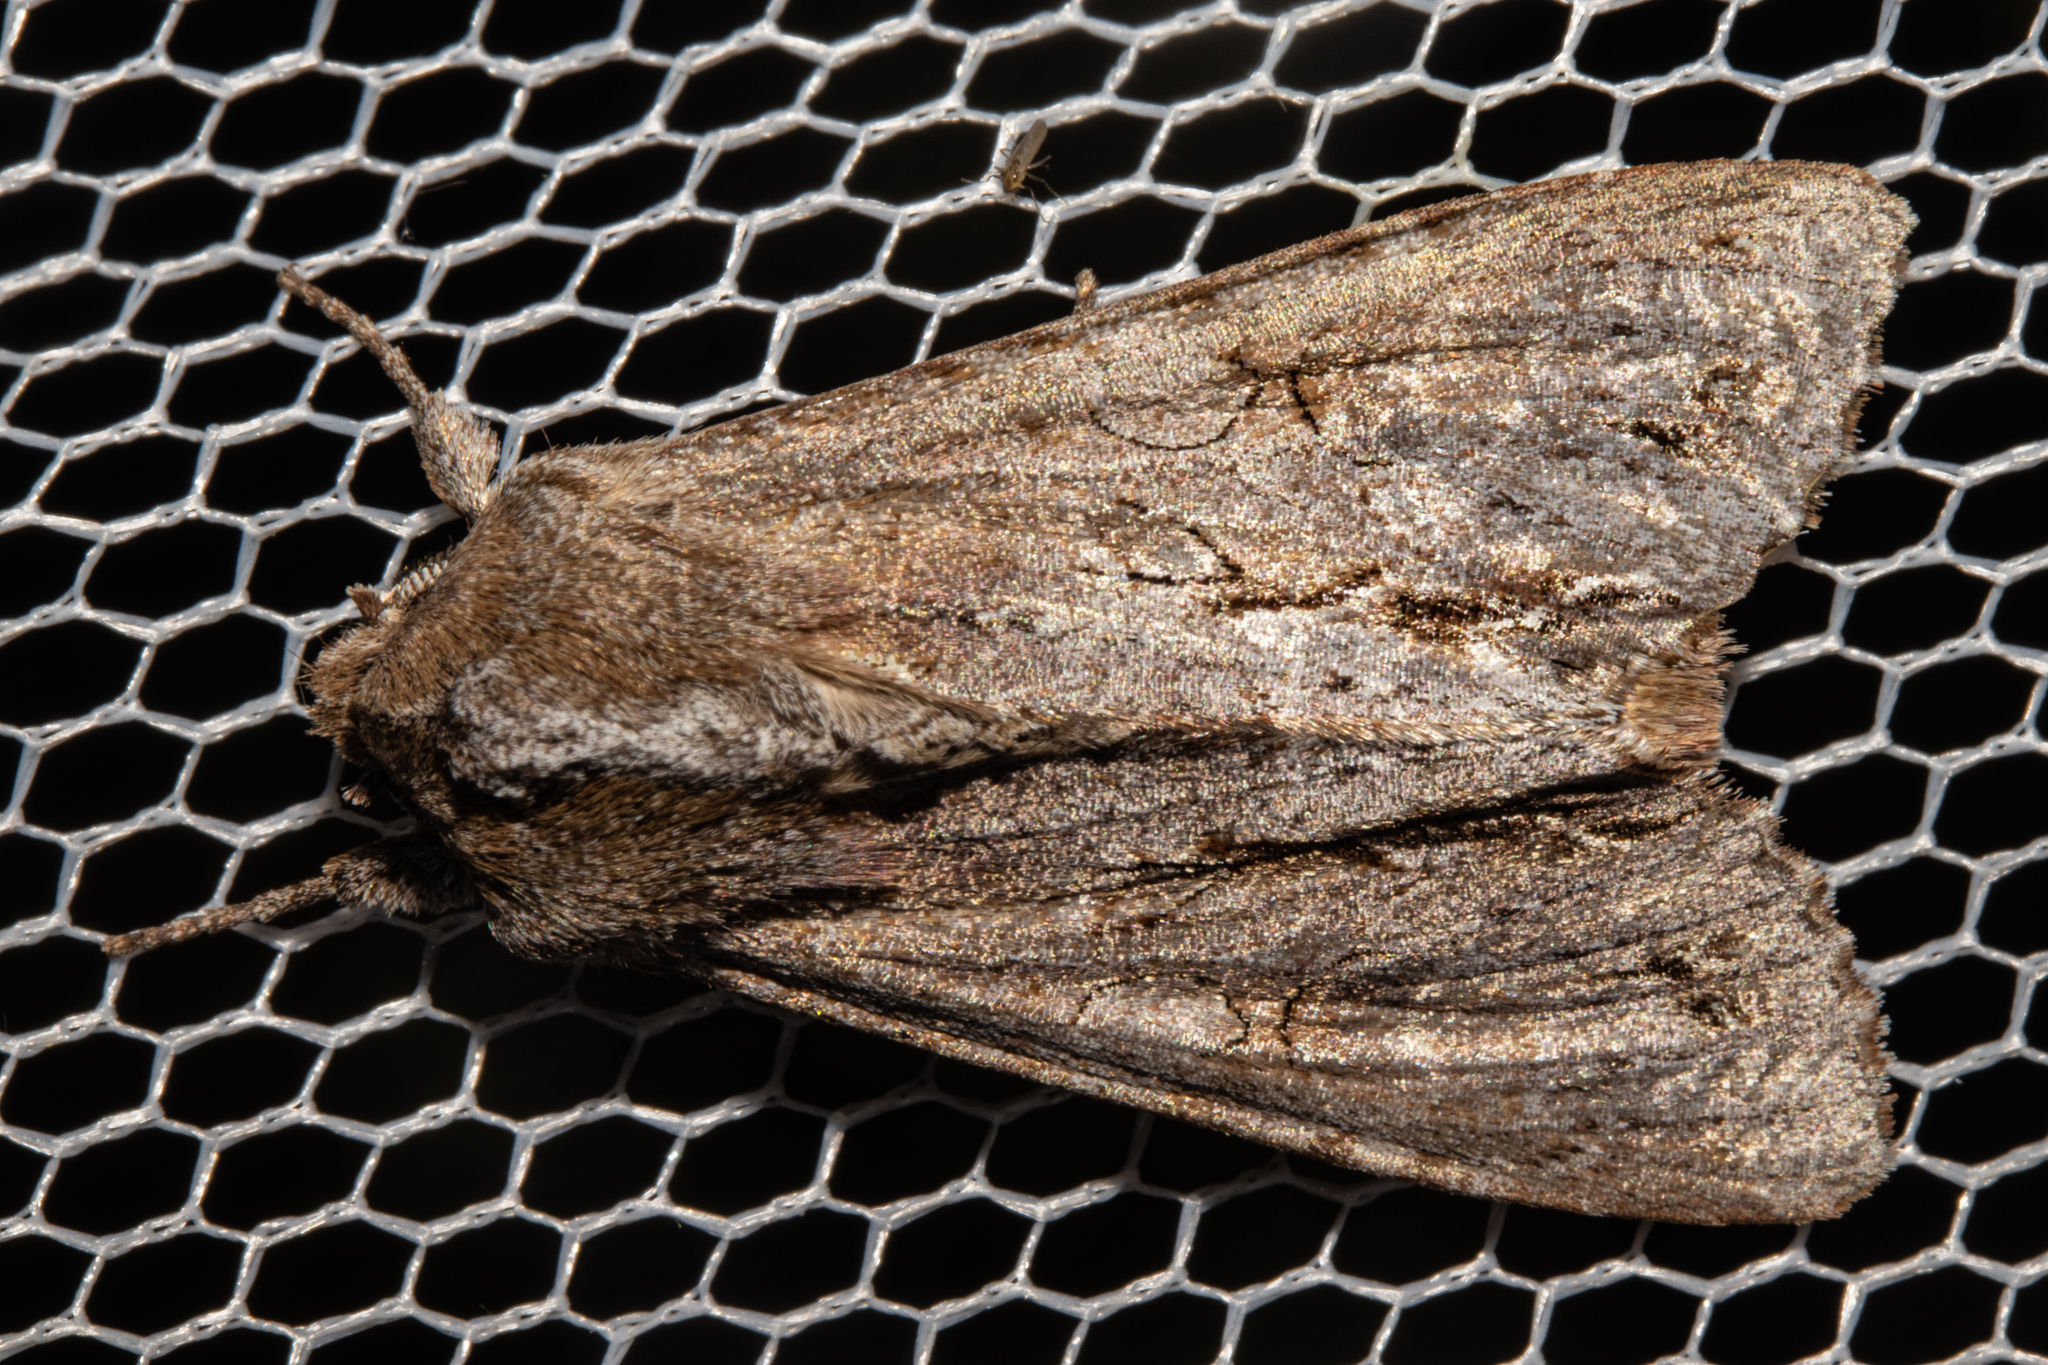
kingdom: Animalia
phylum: Arthropoda
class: Insecta
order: Lepidoptera
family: Noctuidae
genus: Ichneutica
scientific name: Ichneutica
